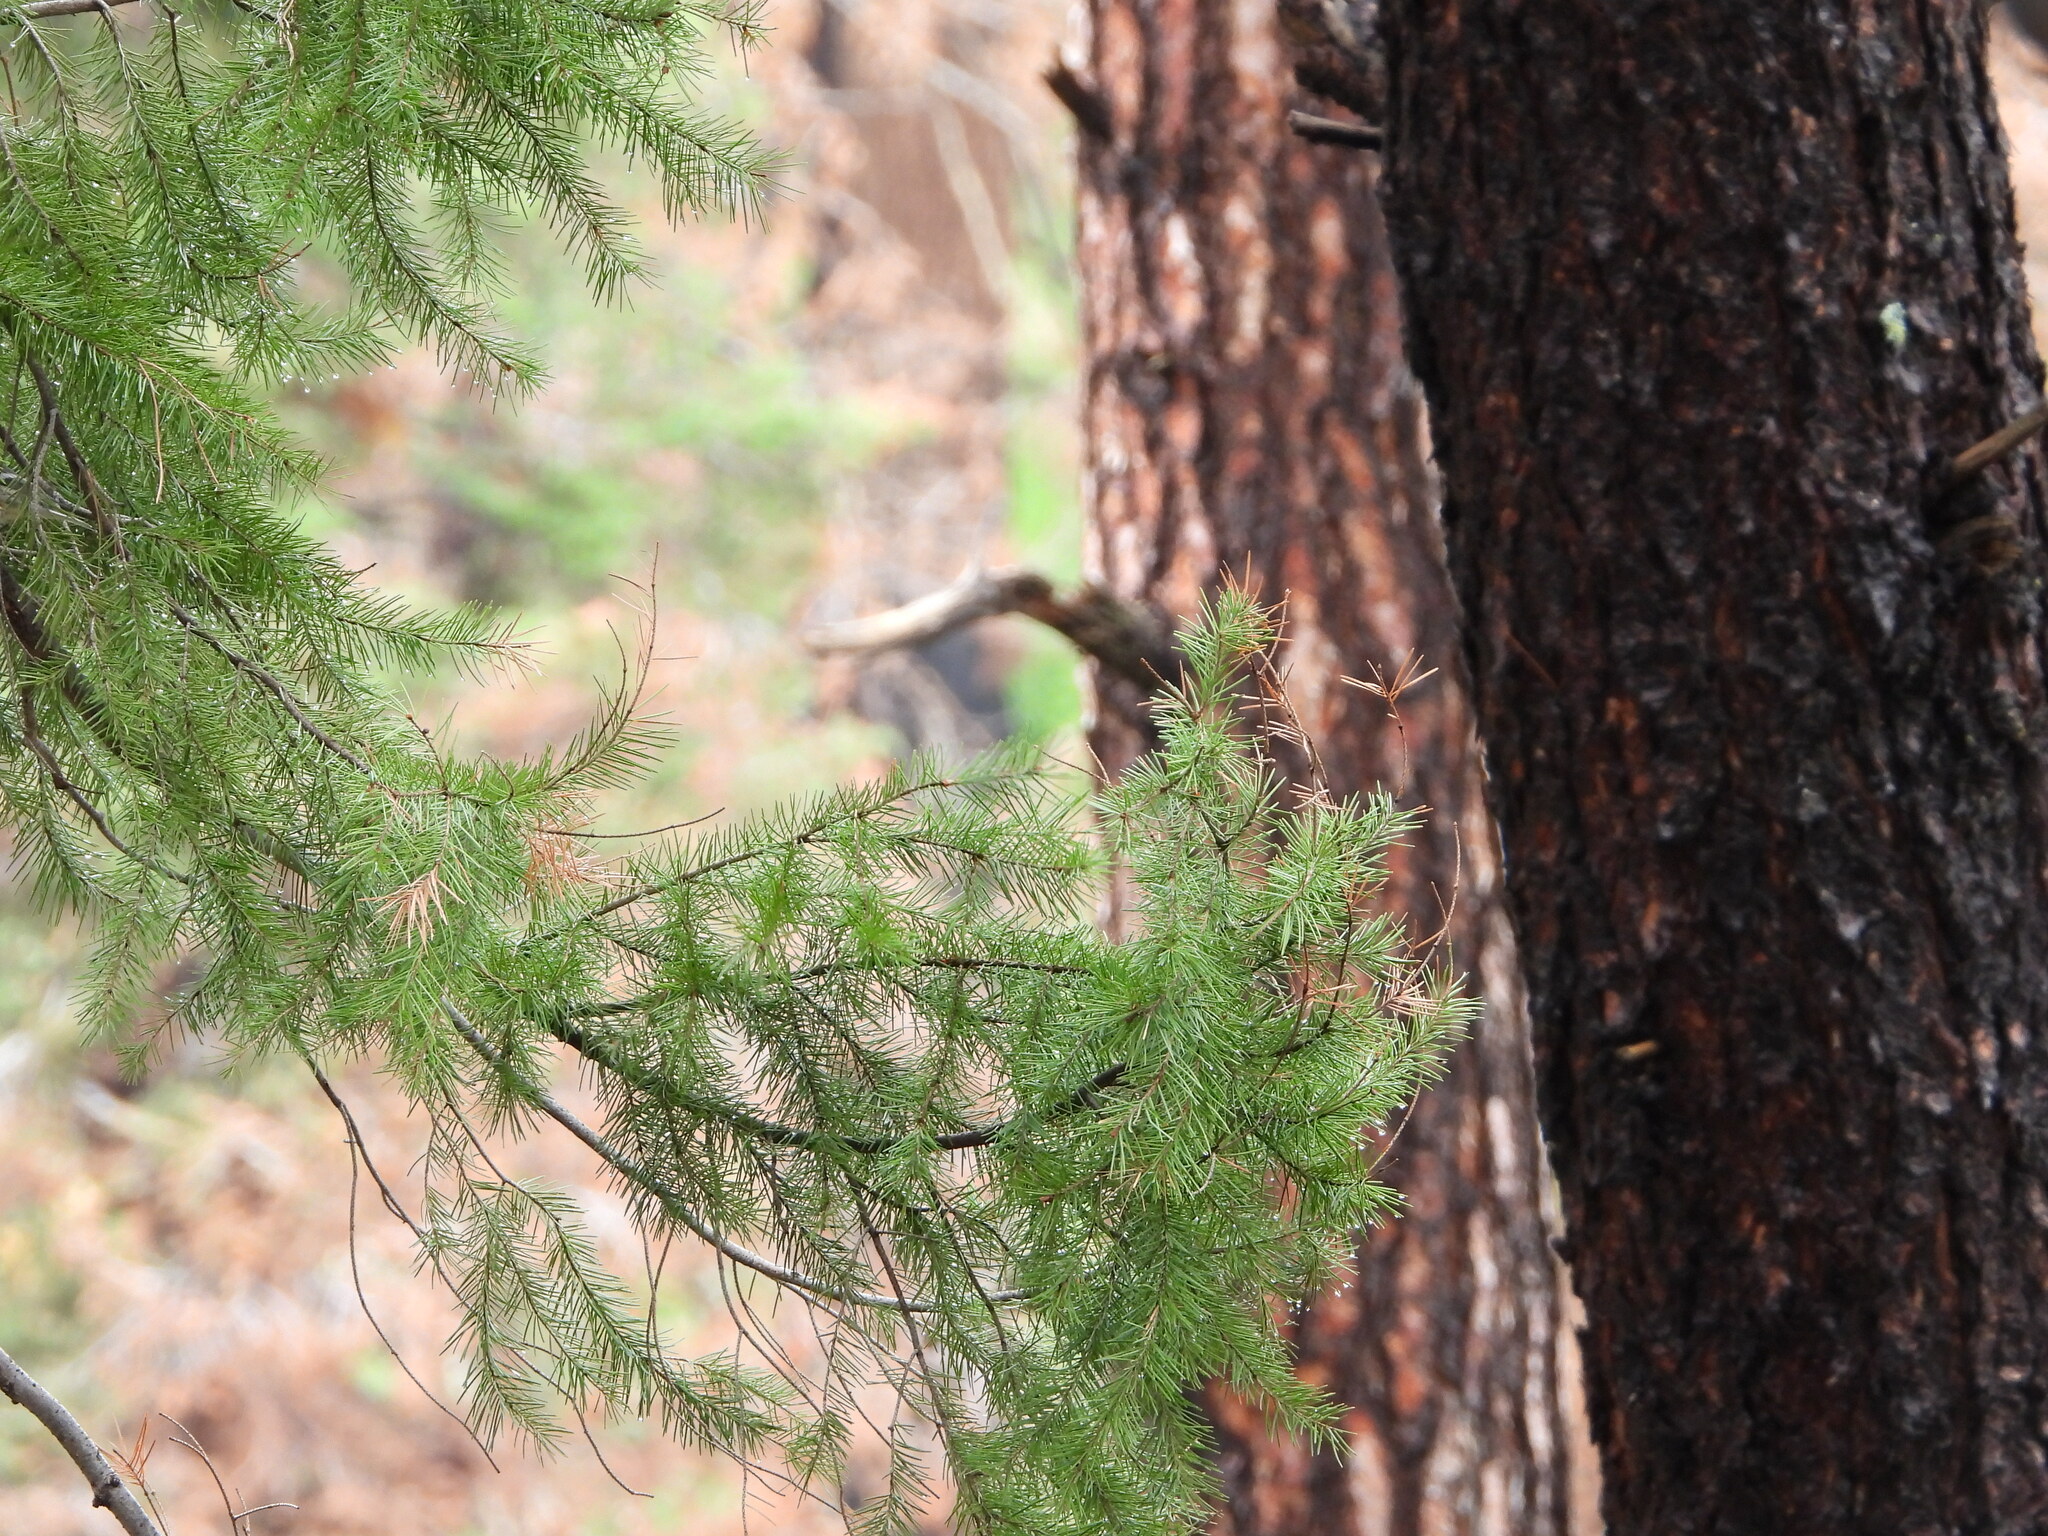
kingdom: Plantae
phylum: Tracheophyta
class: Pinopsida
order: Pinales
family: Pinaceae
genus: Pseudotsuga
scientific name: Pseudotsuga menziesii
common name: Douglas fir
